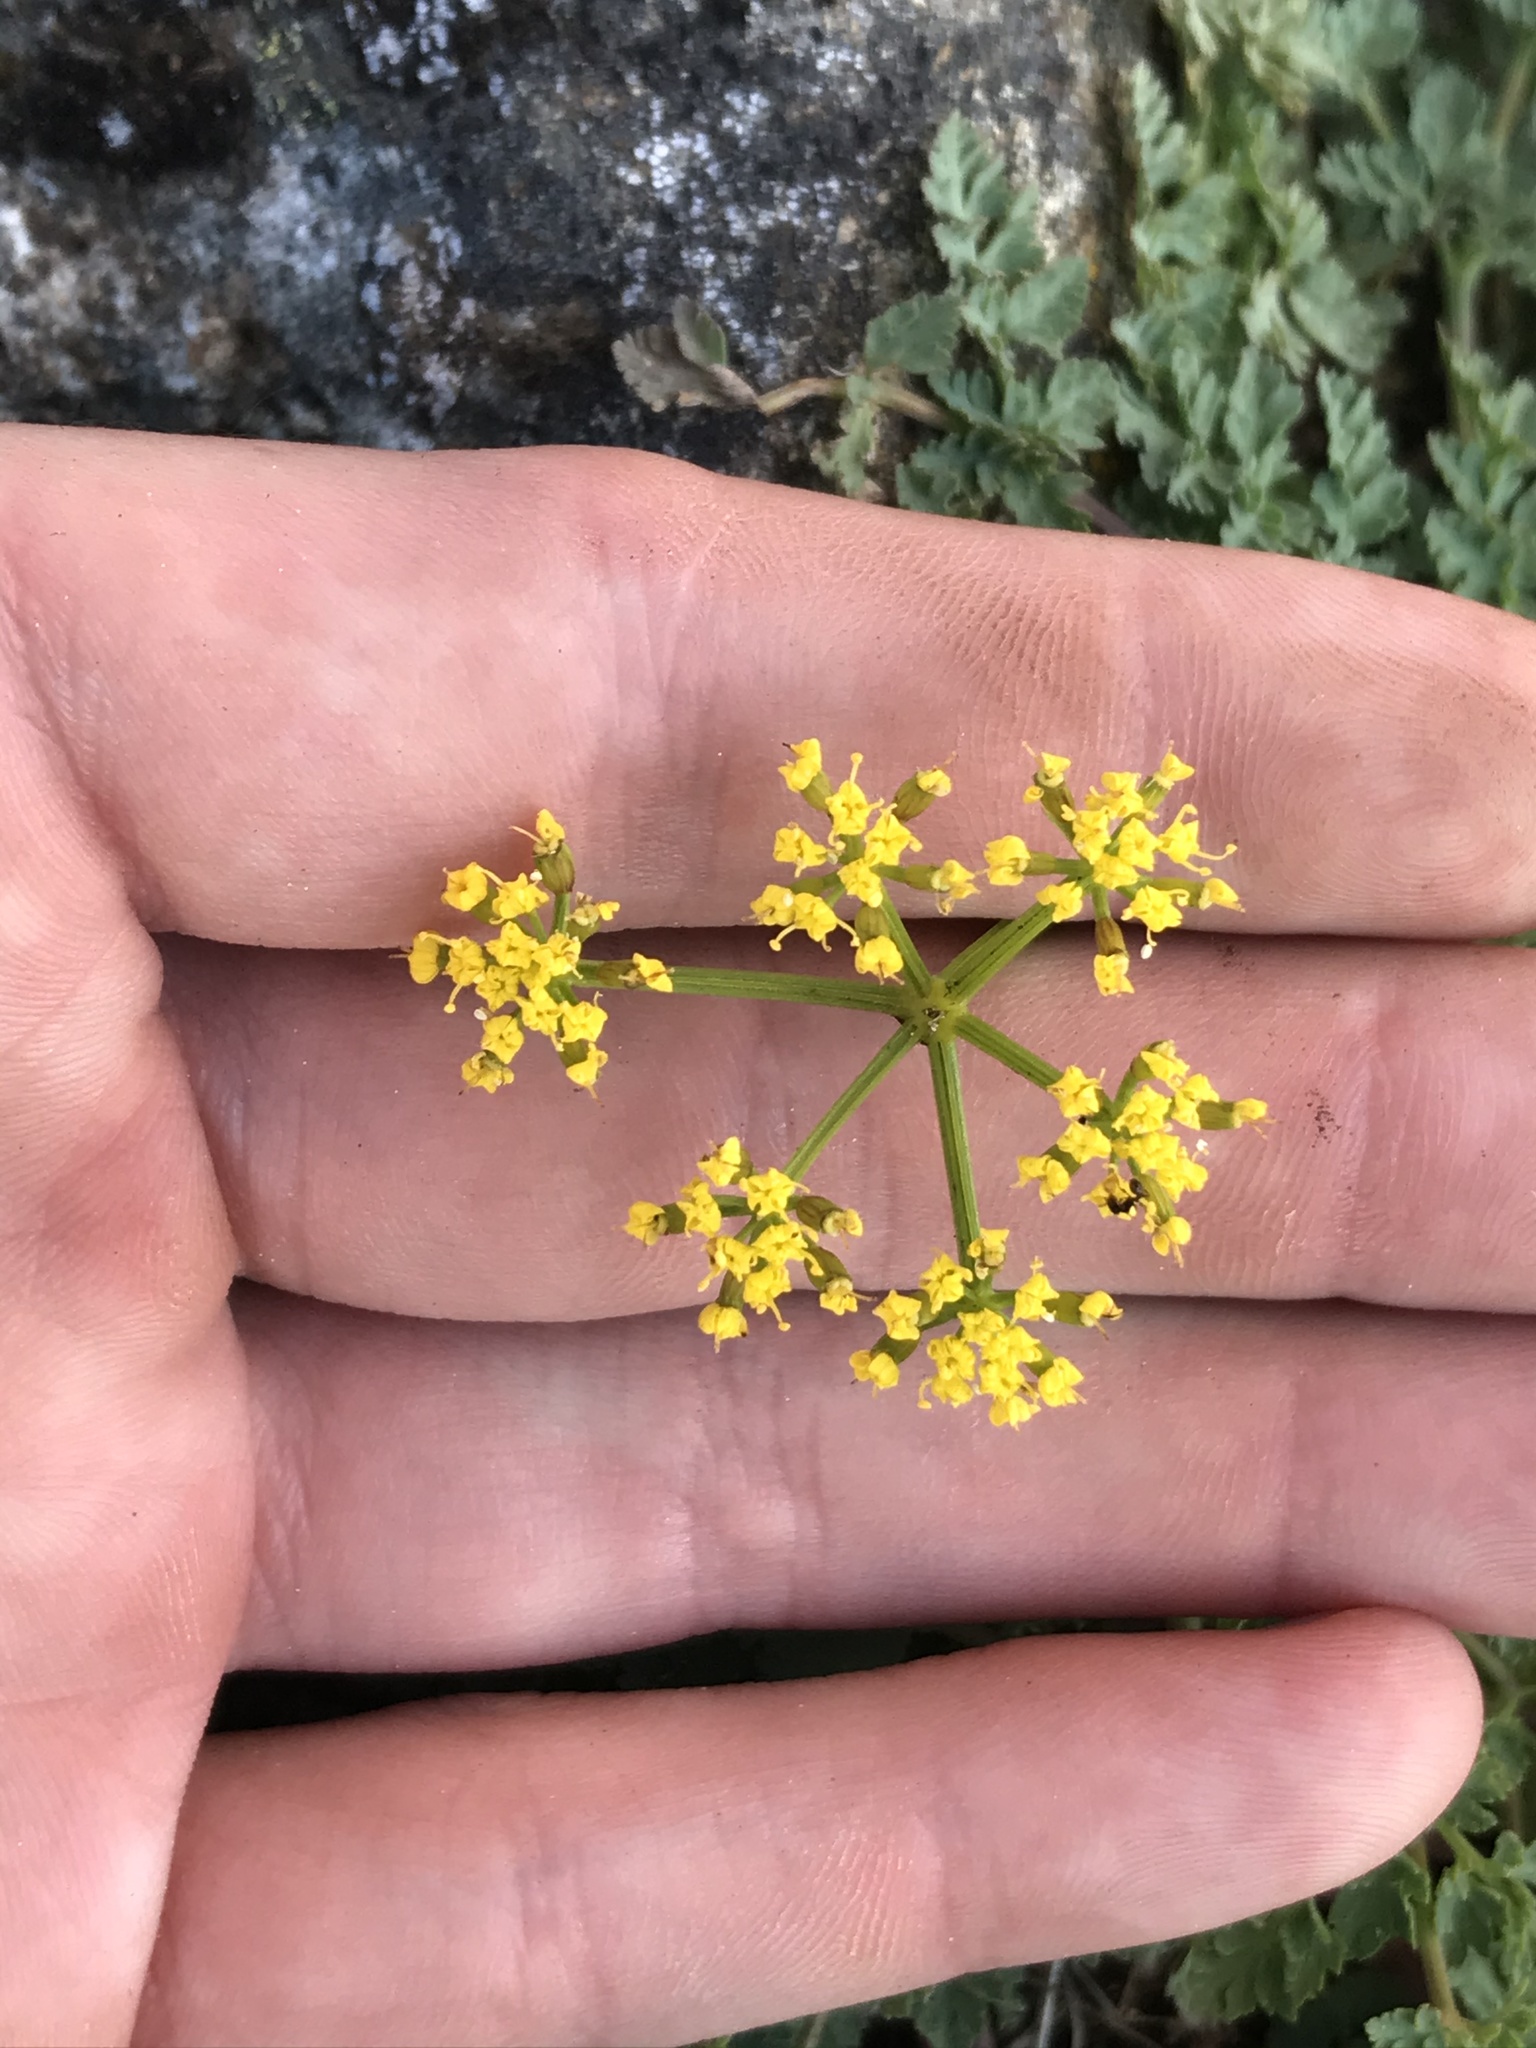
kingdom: Plantae
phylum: Tracheophyta
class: Magnoliopsida
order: Apiales
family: Apiaceae
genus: Lomatium
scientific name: Lomatium martindalei
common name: Cascade desert-parsley
